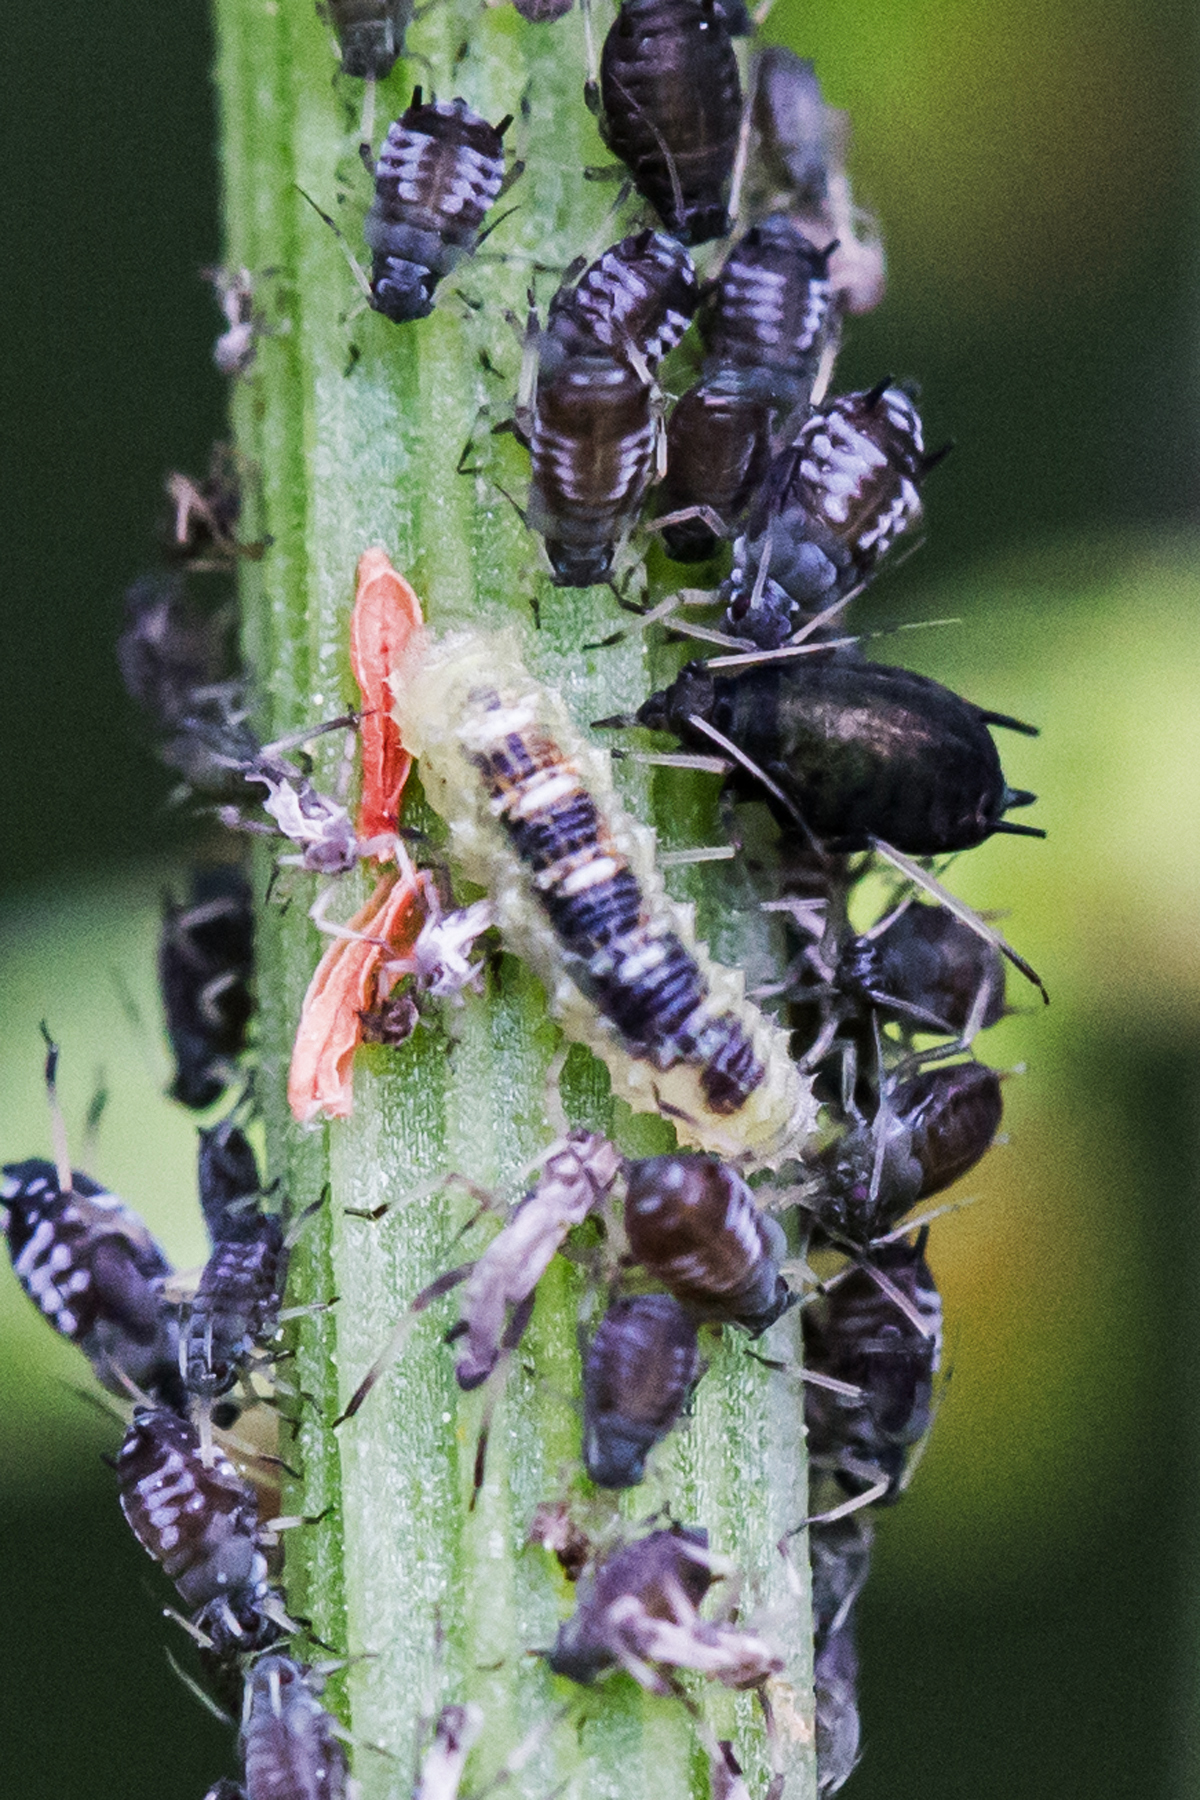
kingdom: Animalia
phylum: Arthropoda
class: Insecta
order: Diptera
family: Syrphidae
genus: Eupeodes
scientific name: Eupeodes pomus
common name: Short-tailed aphideater
